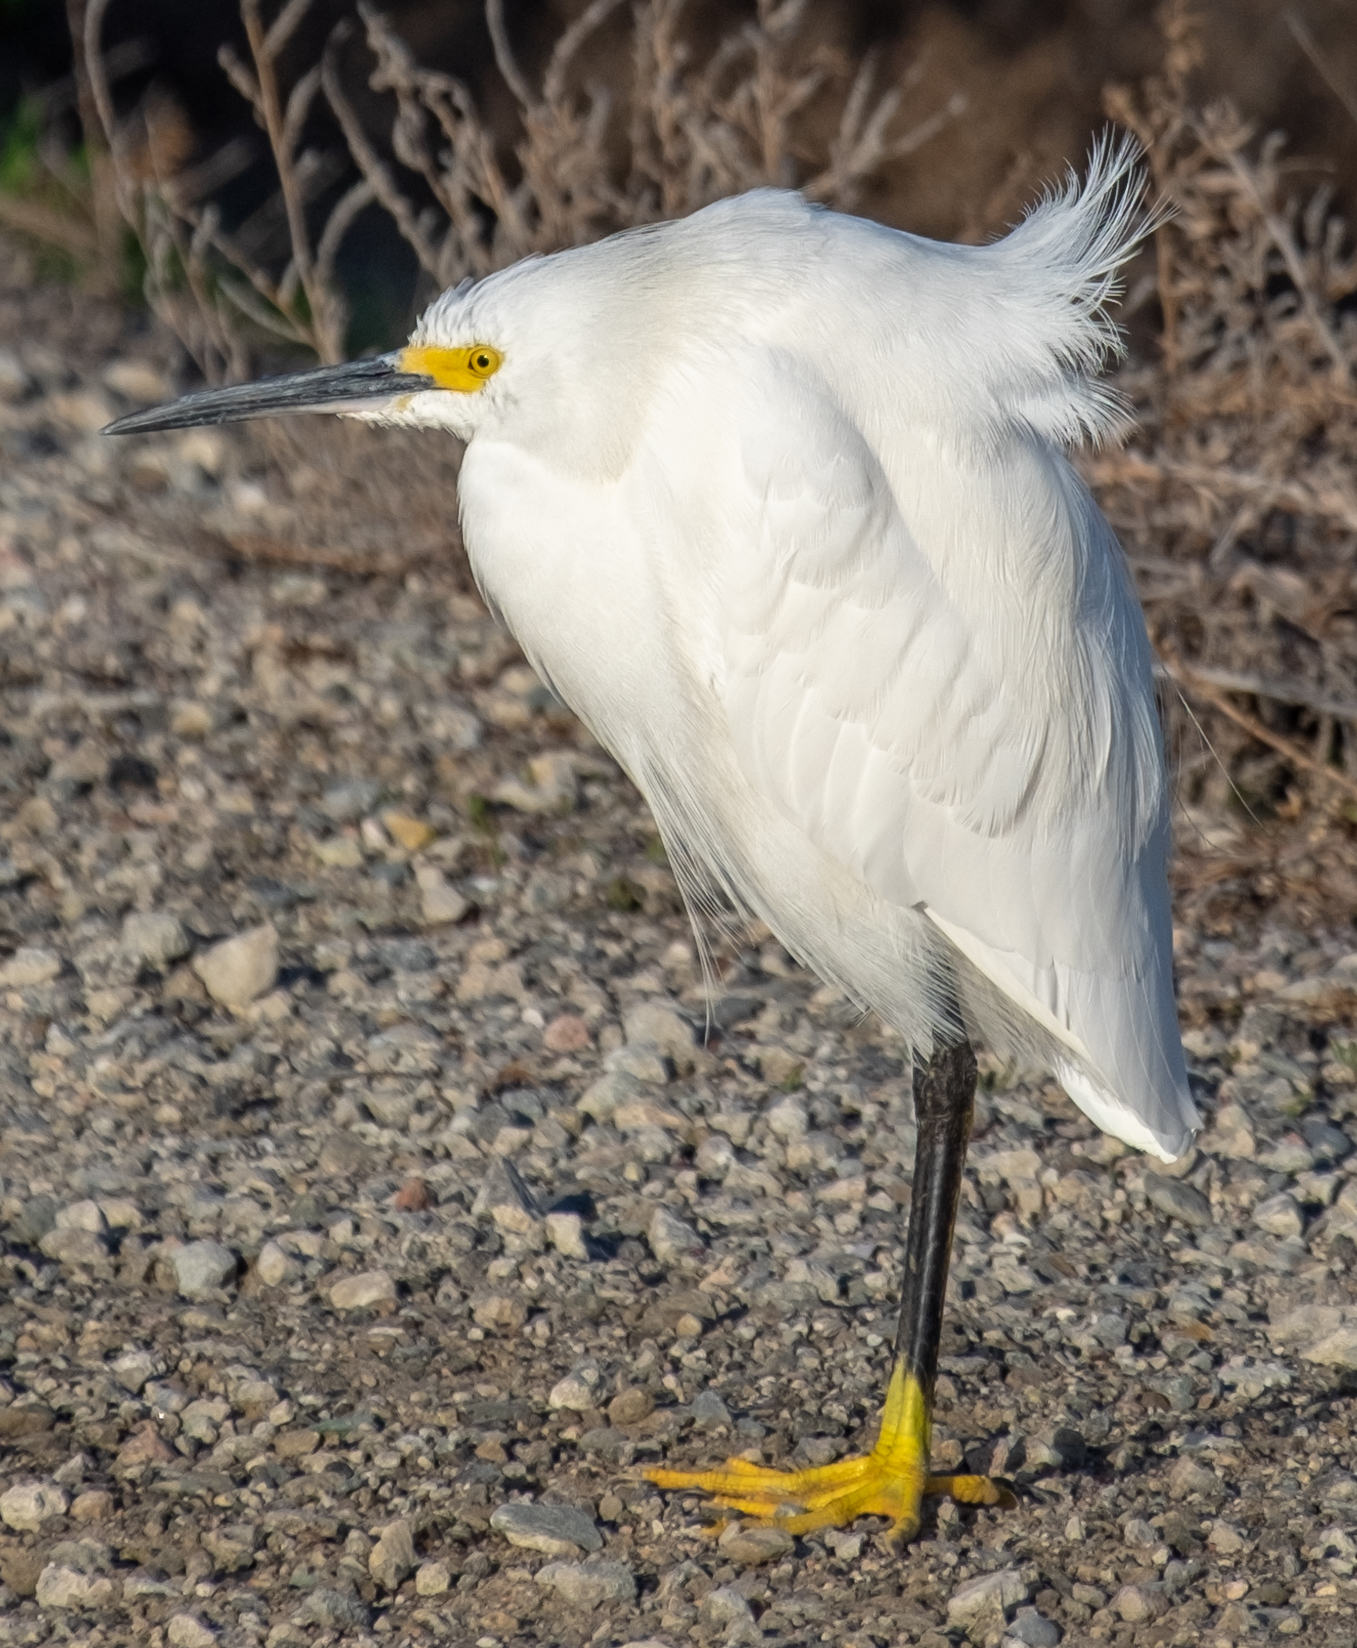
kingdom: Animalia
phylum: Chordata
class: Aves
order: Pelecaniformes
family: Ardeidae
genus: Egretta
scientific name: Egretta thula
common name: Snowy egret
